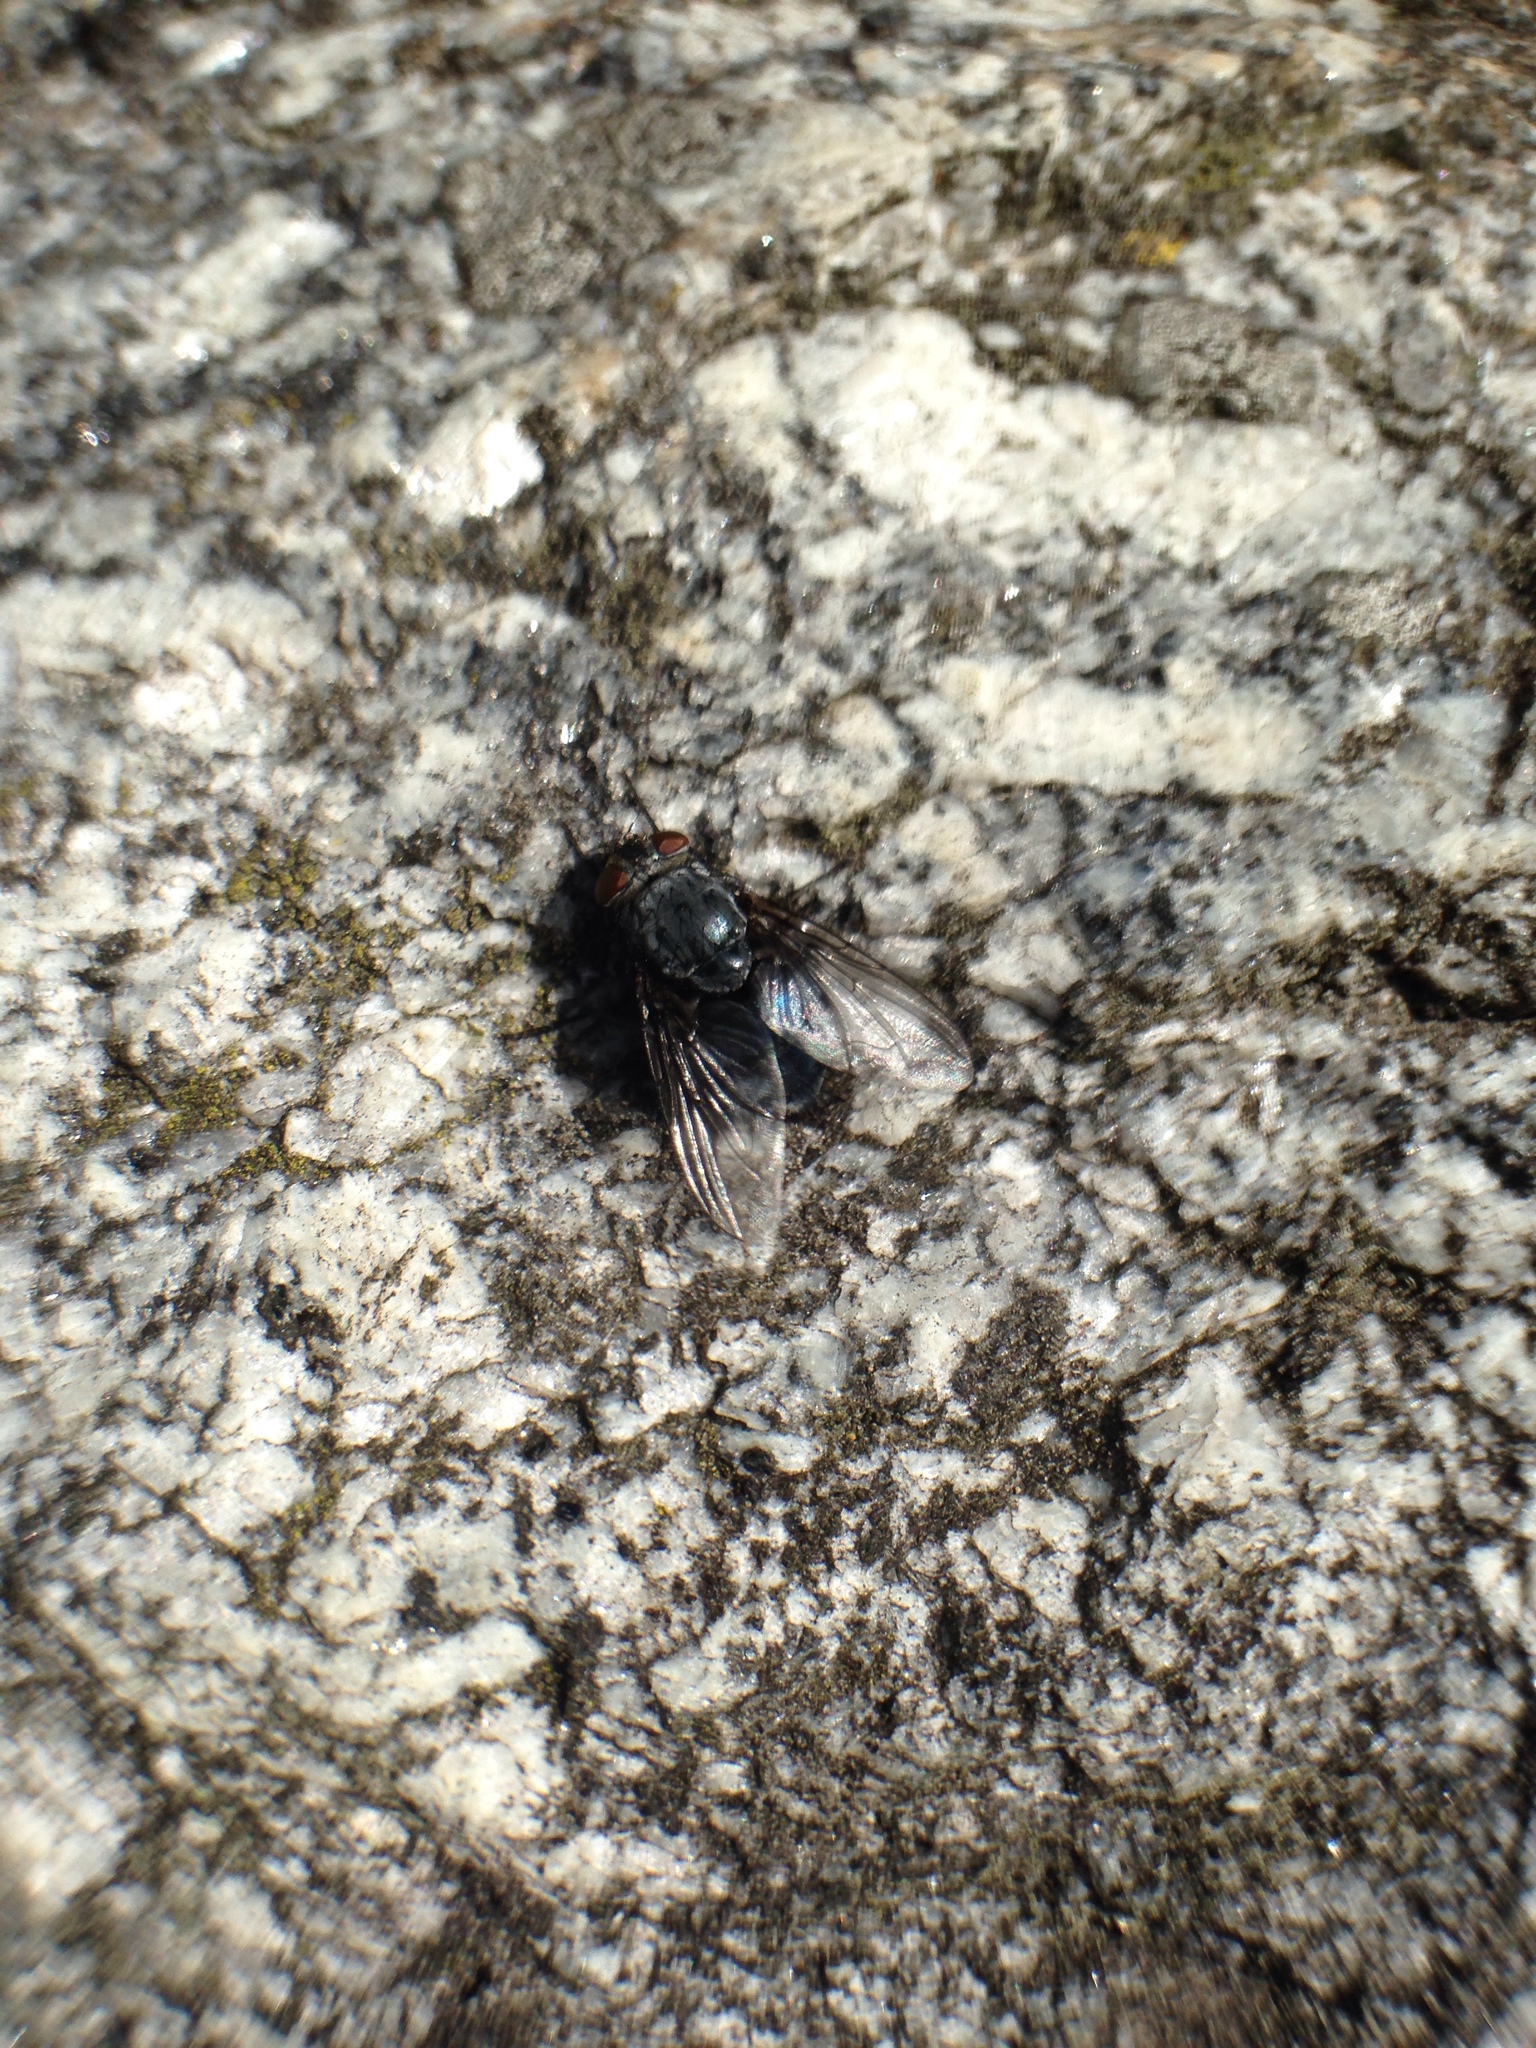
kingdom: Animalia
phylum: Arthropoda
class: Insecta
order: Diptera
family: Calliphoridae
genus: Calliphora
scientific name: Calliphora vicina
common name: Common blow flie
